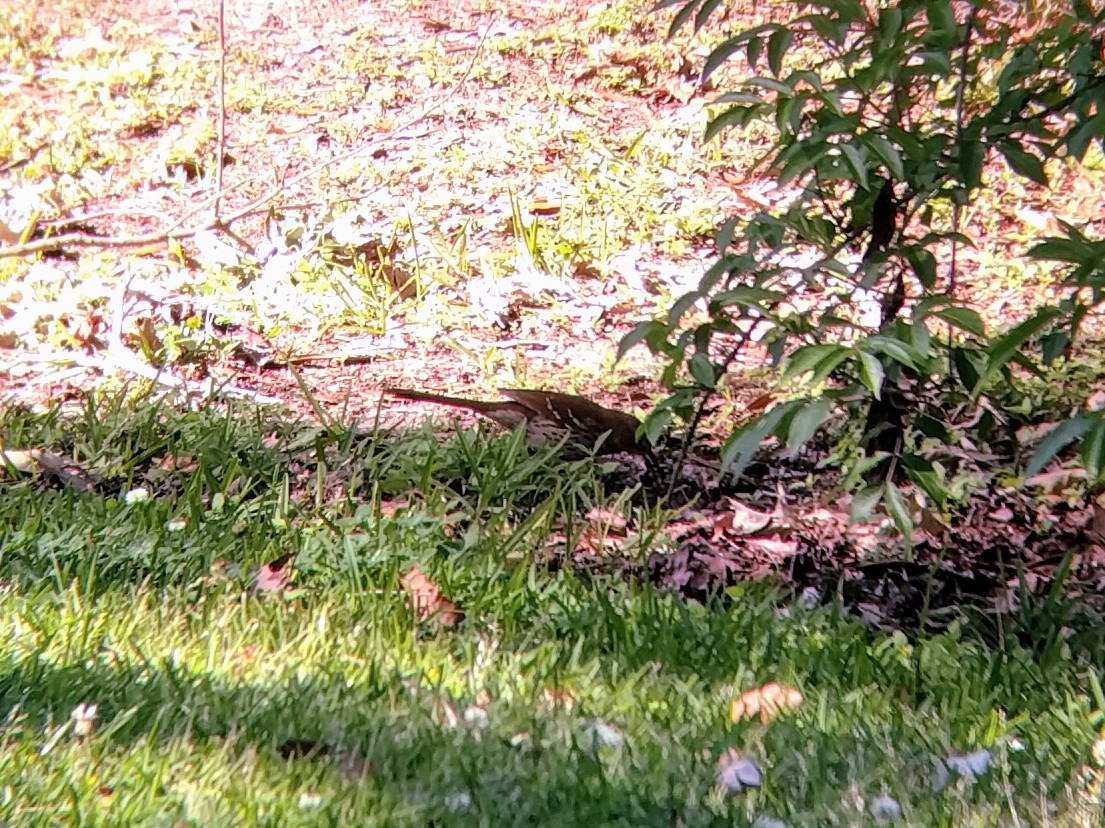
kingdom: Animalia
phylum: Chordata
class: Aves
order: Passeriformes
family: Mimidae
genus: Toxostoma
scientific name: Toxostoma rufum
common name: Brown thrasher
